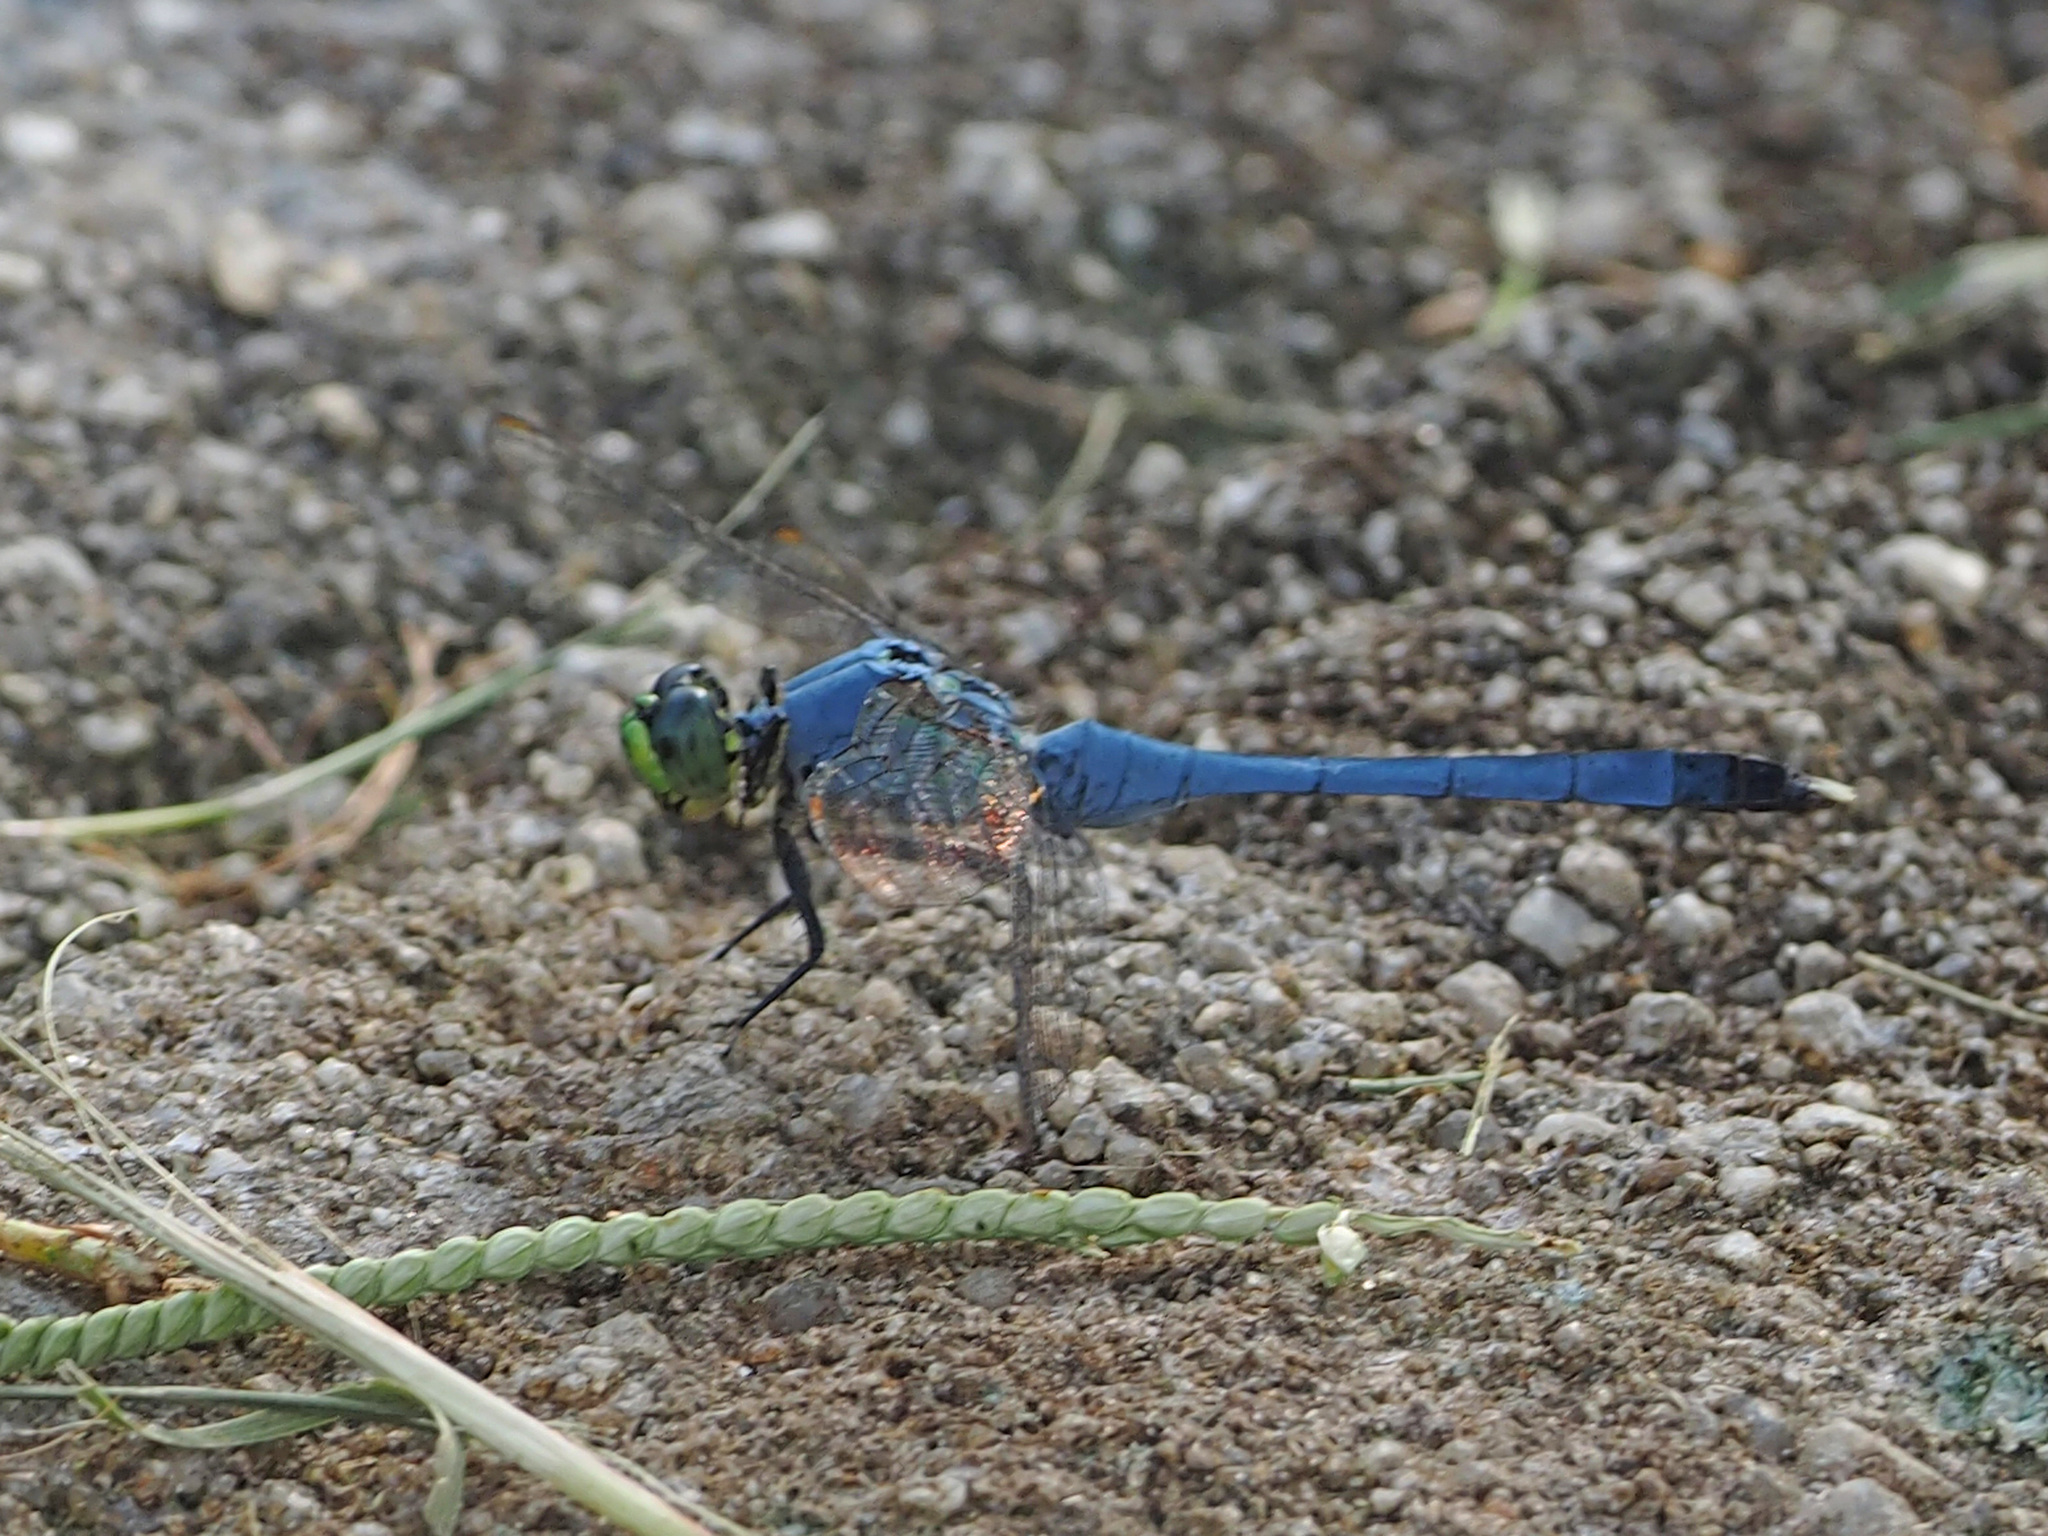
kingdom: Animalia
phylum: Arthropoda
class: Insecta
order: Odonata
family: Libellulidae
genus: Erythemis
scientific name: Erythemis simplicicollis
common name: Eastern pondhawk
